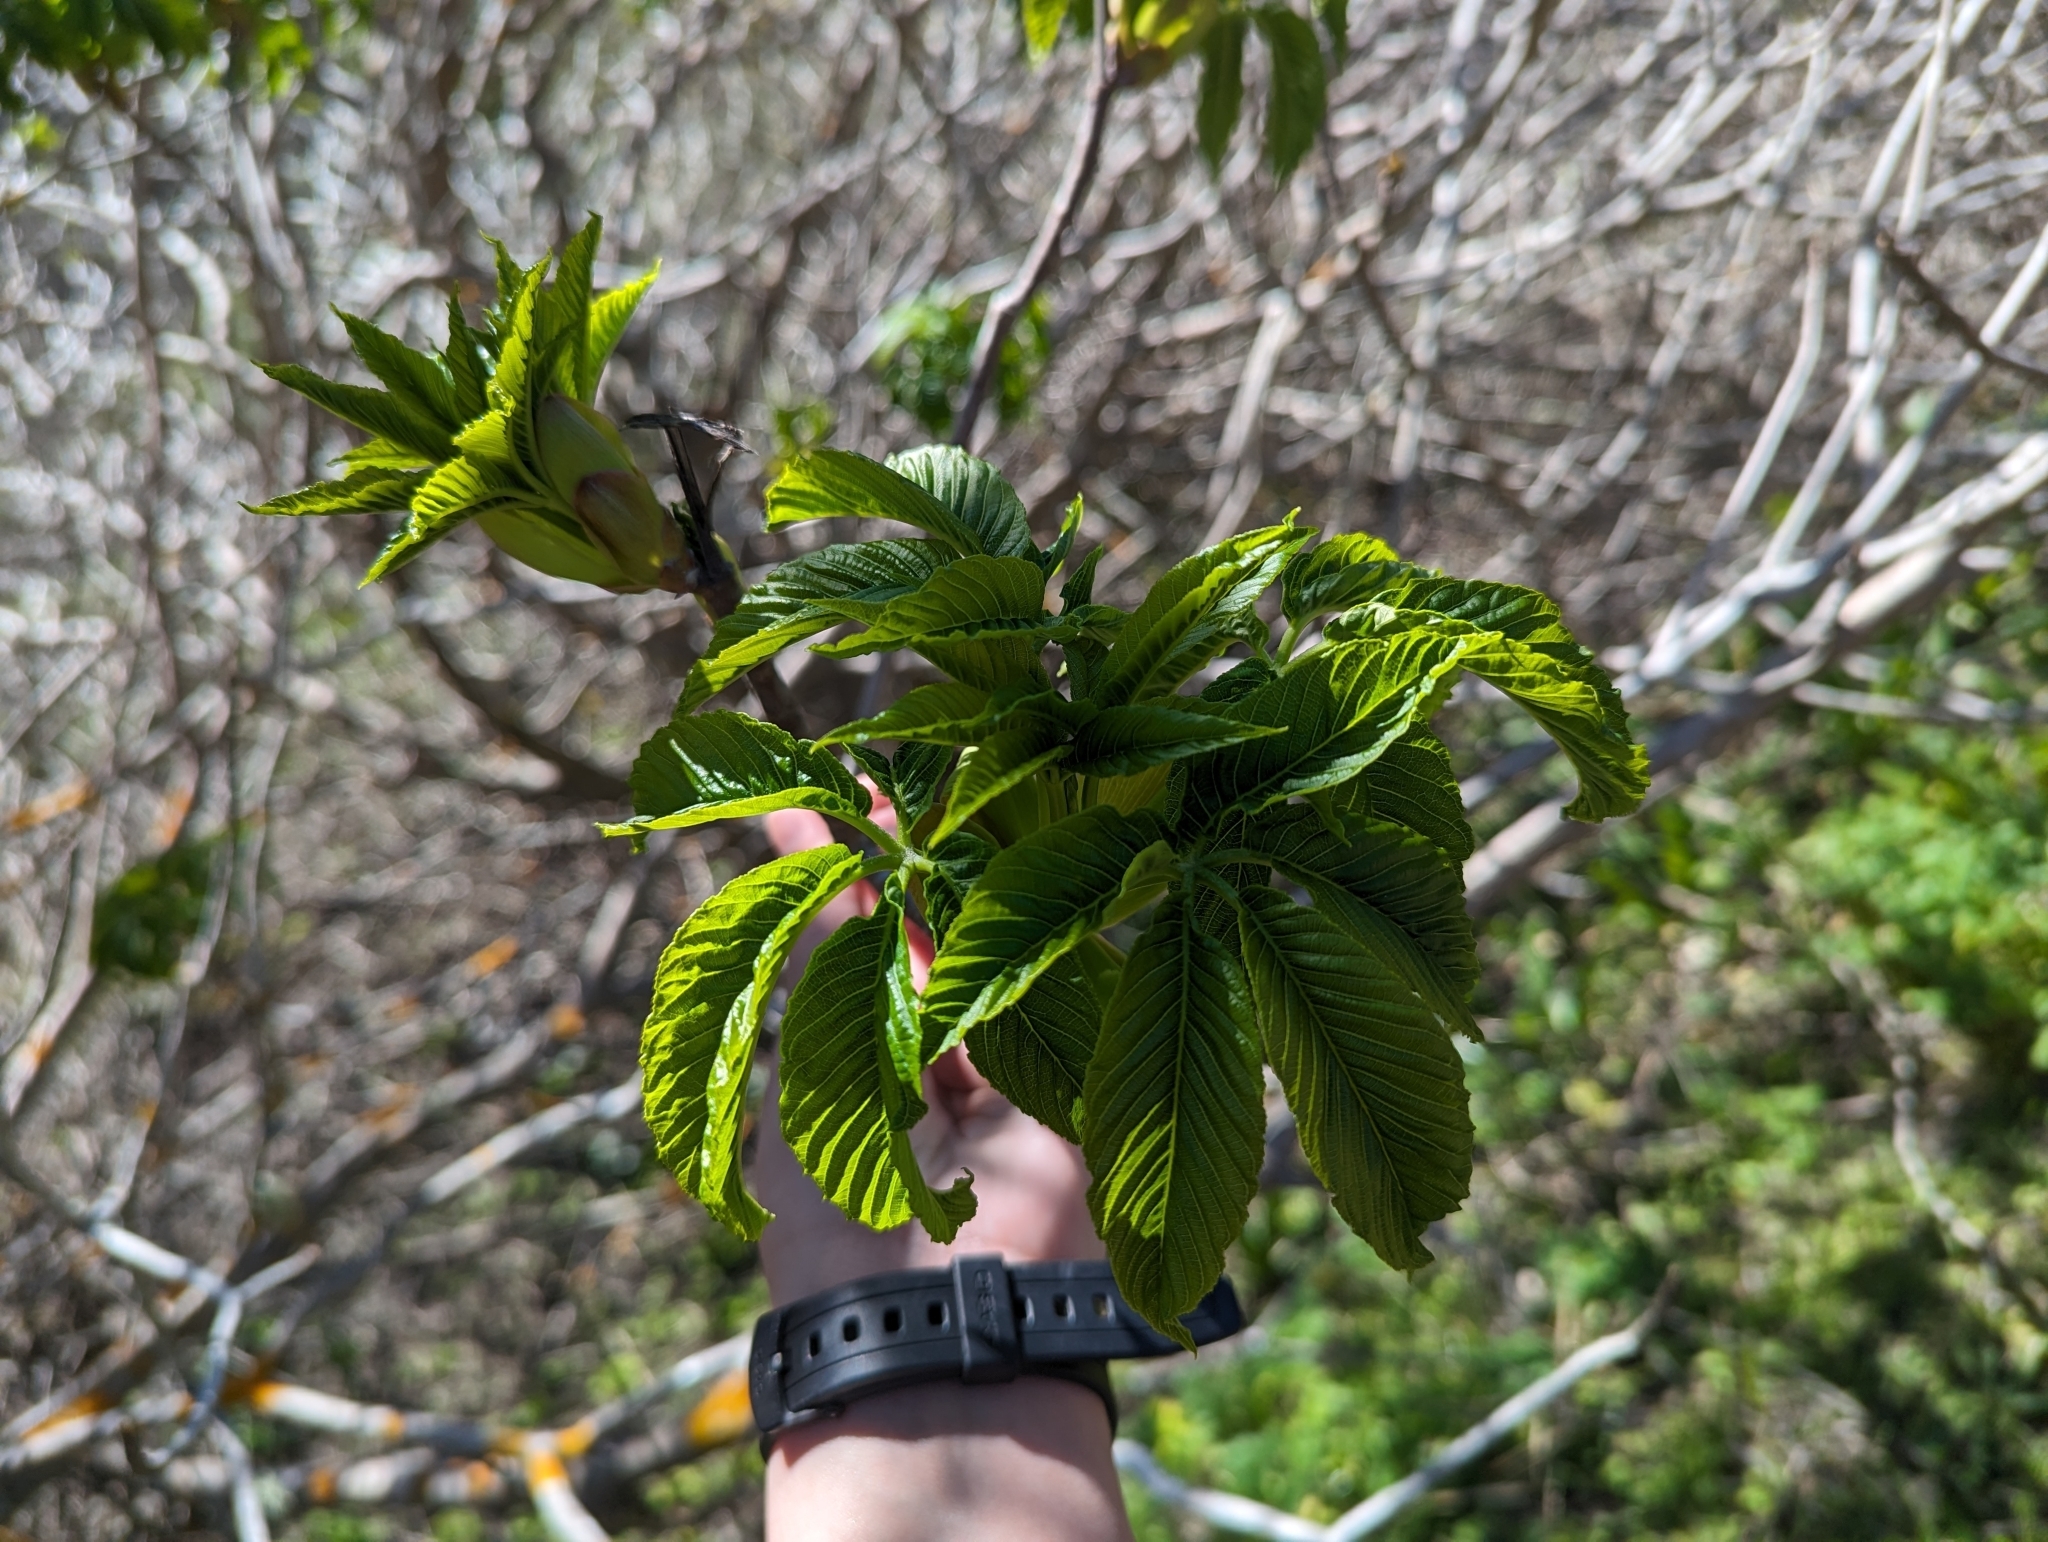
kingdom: Plantae
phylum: Tracheophyta
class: Magnoliopsida
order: Sapindales
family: Sapindaceae
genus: Aesculus
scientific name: Aesculus californica
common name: California buckeye
